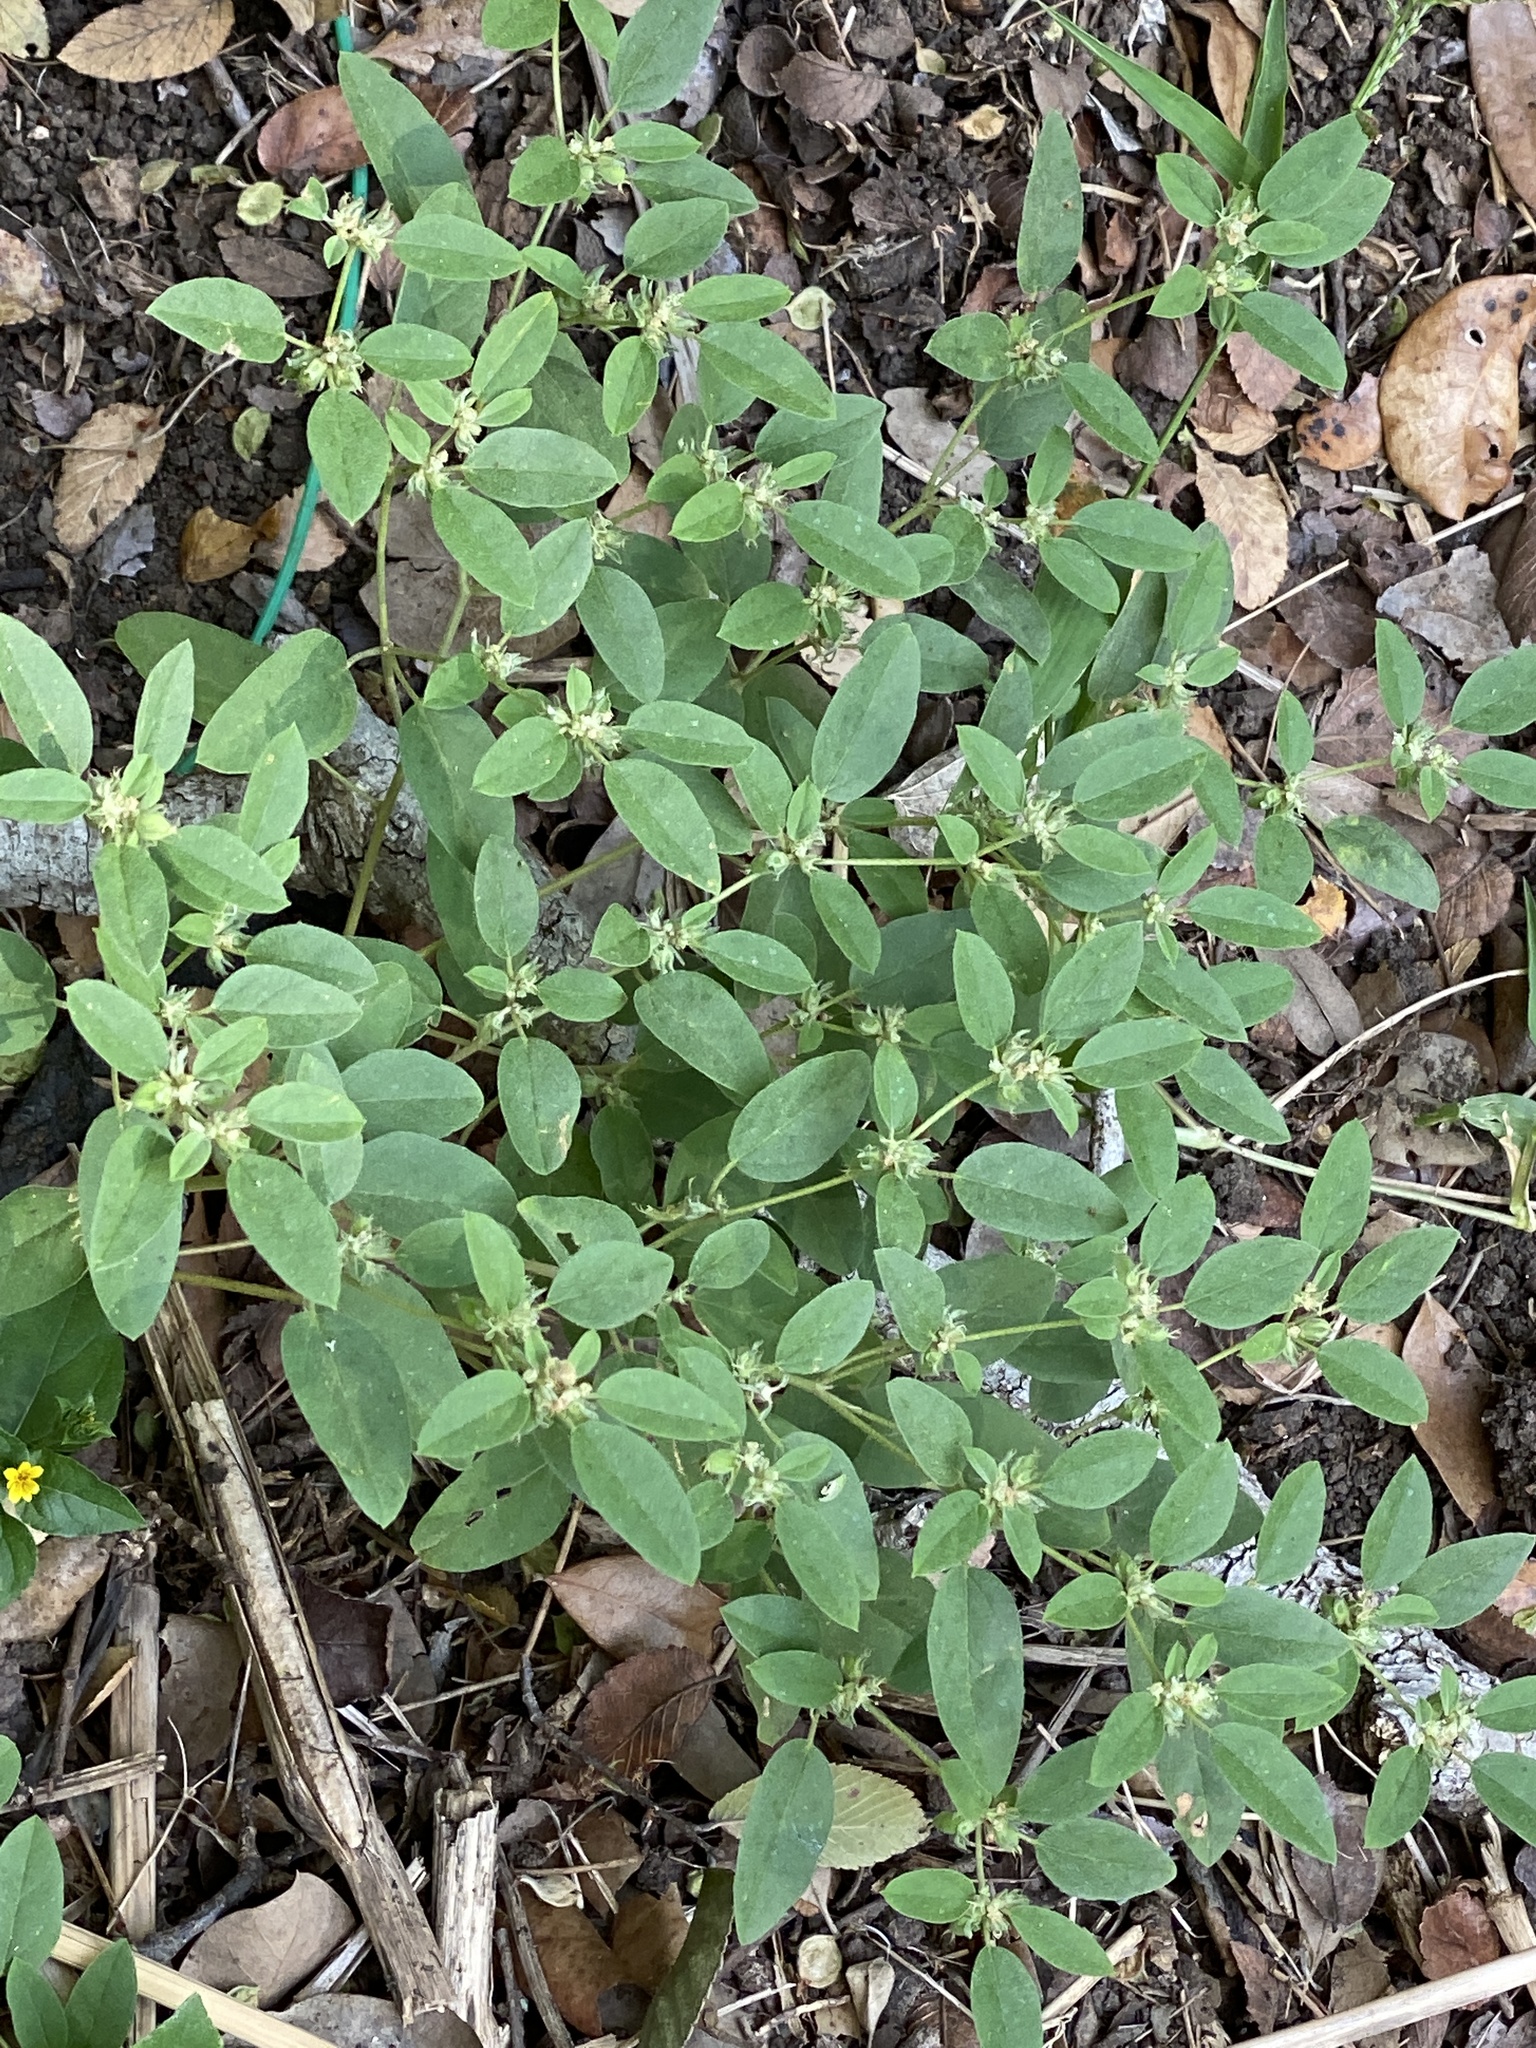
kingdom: Plantae
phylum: Tracheophyta
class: Magnoliopsida
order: Malpighiales
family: Euphorbiaceae
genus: Croton
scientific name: Croton monanthogynus
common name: One-seed croton
